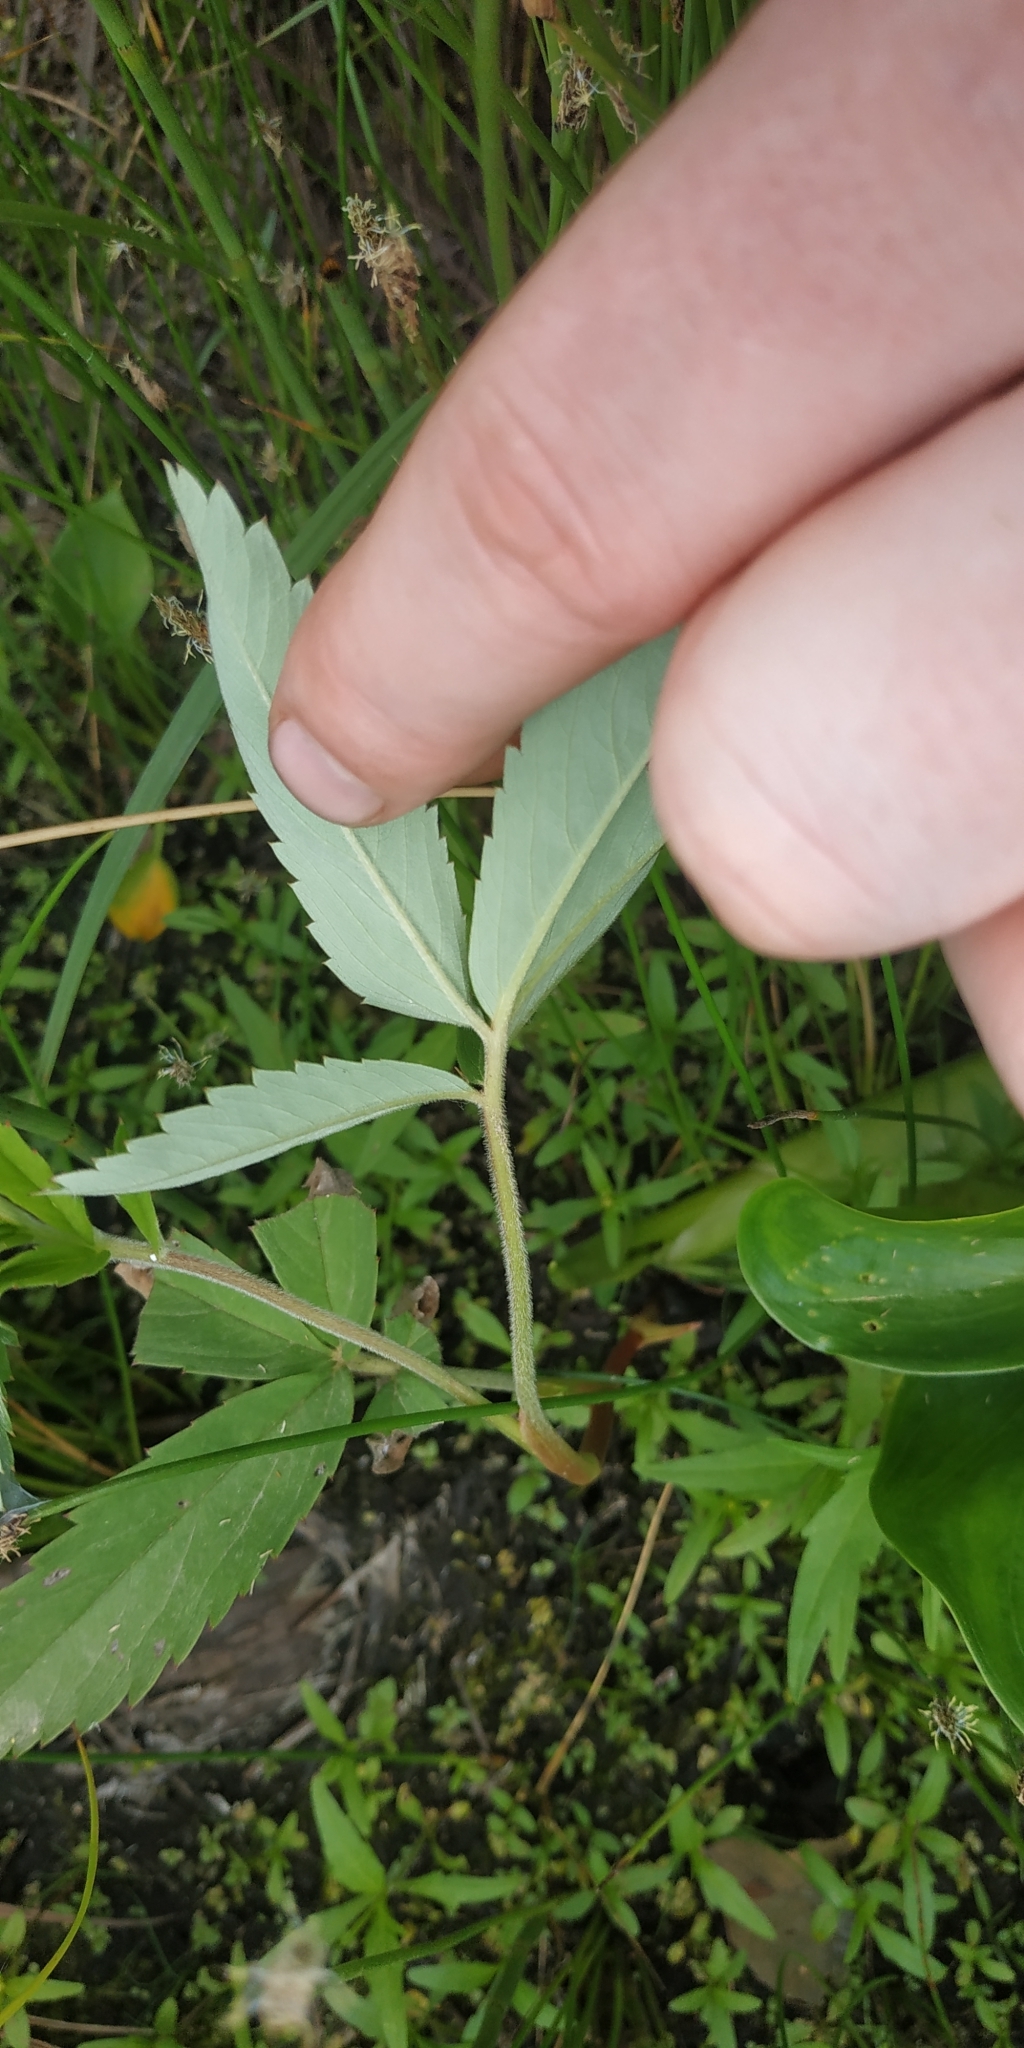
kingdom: Plantae
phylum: Tracheophyta
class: Magnoliopsida
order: Rosales
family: Rosaceae
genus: Comarum
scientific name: Comarum palustre
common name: Marsh cinquefoil
